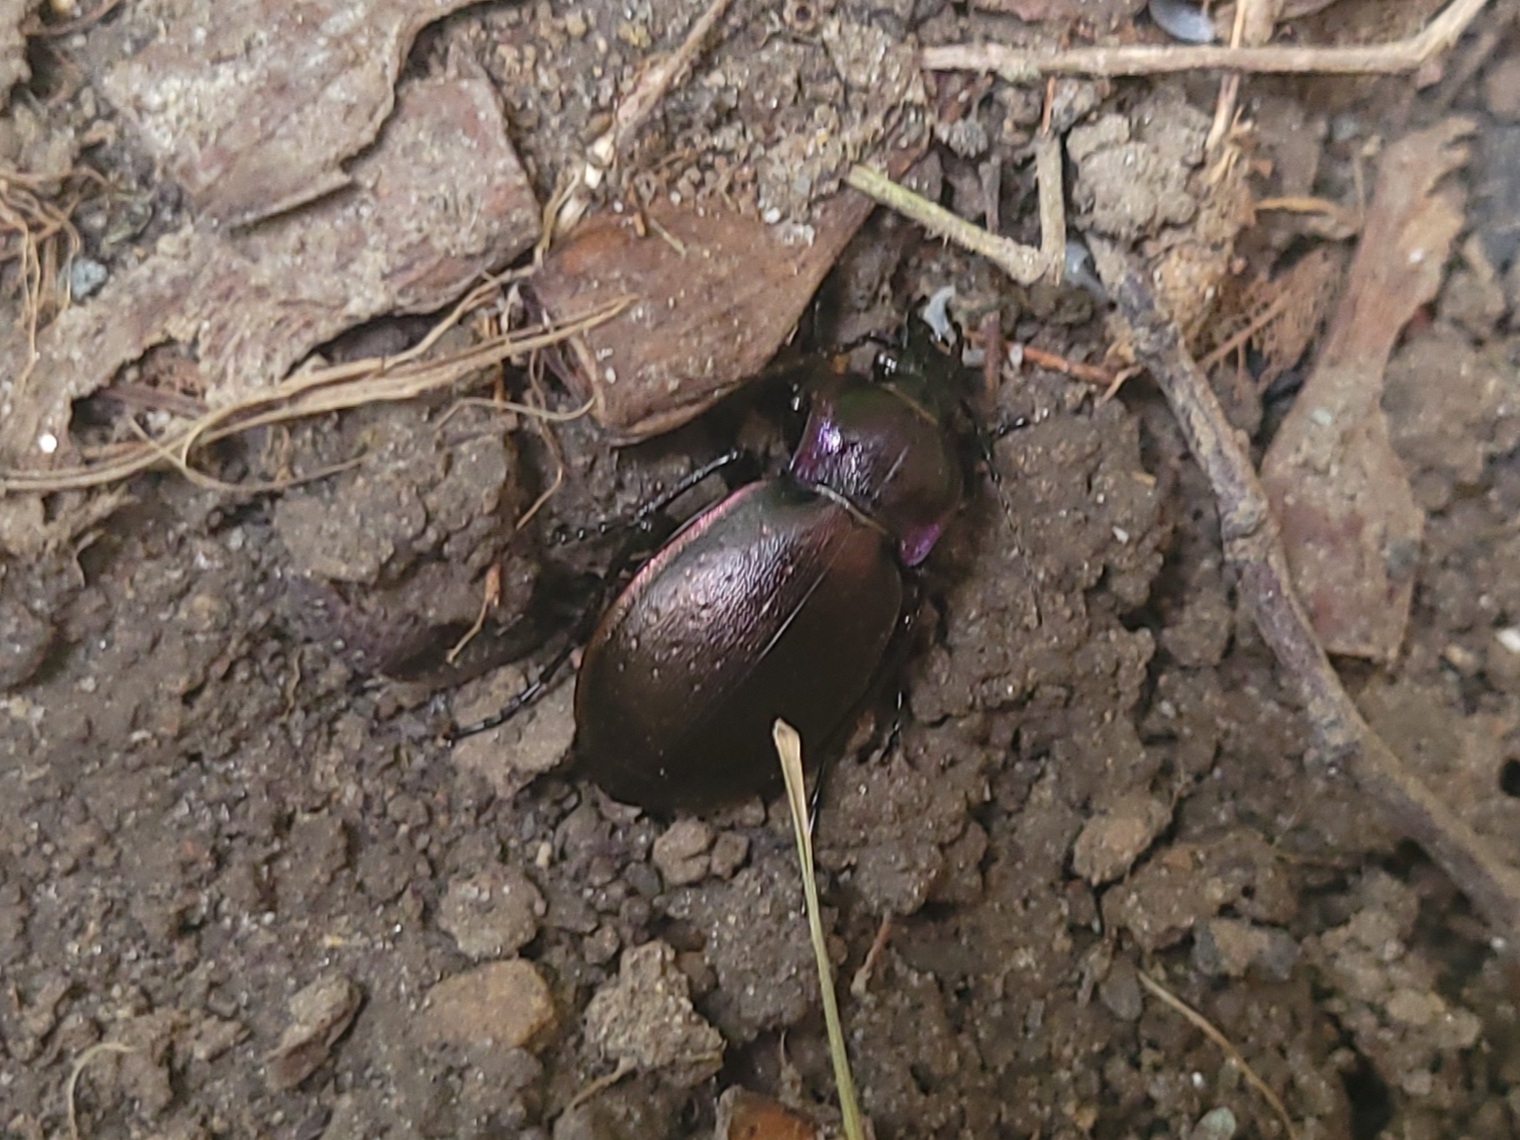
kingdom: Animalia
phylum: Arthropoda
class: Insecta
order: Coleoptera
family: Carabidae
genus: Carabus
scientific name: Carabus nemoralis
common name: European ground beetle
